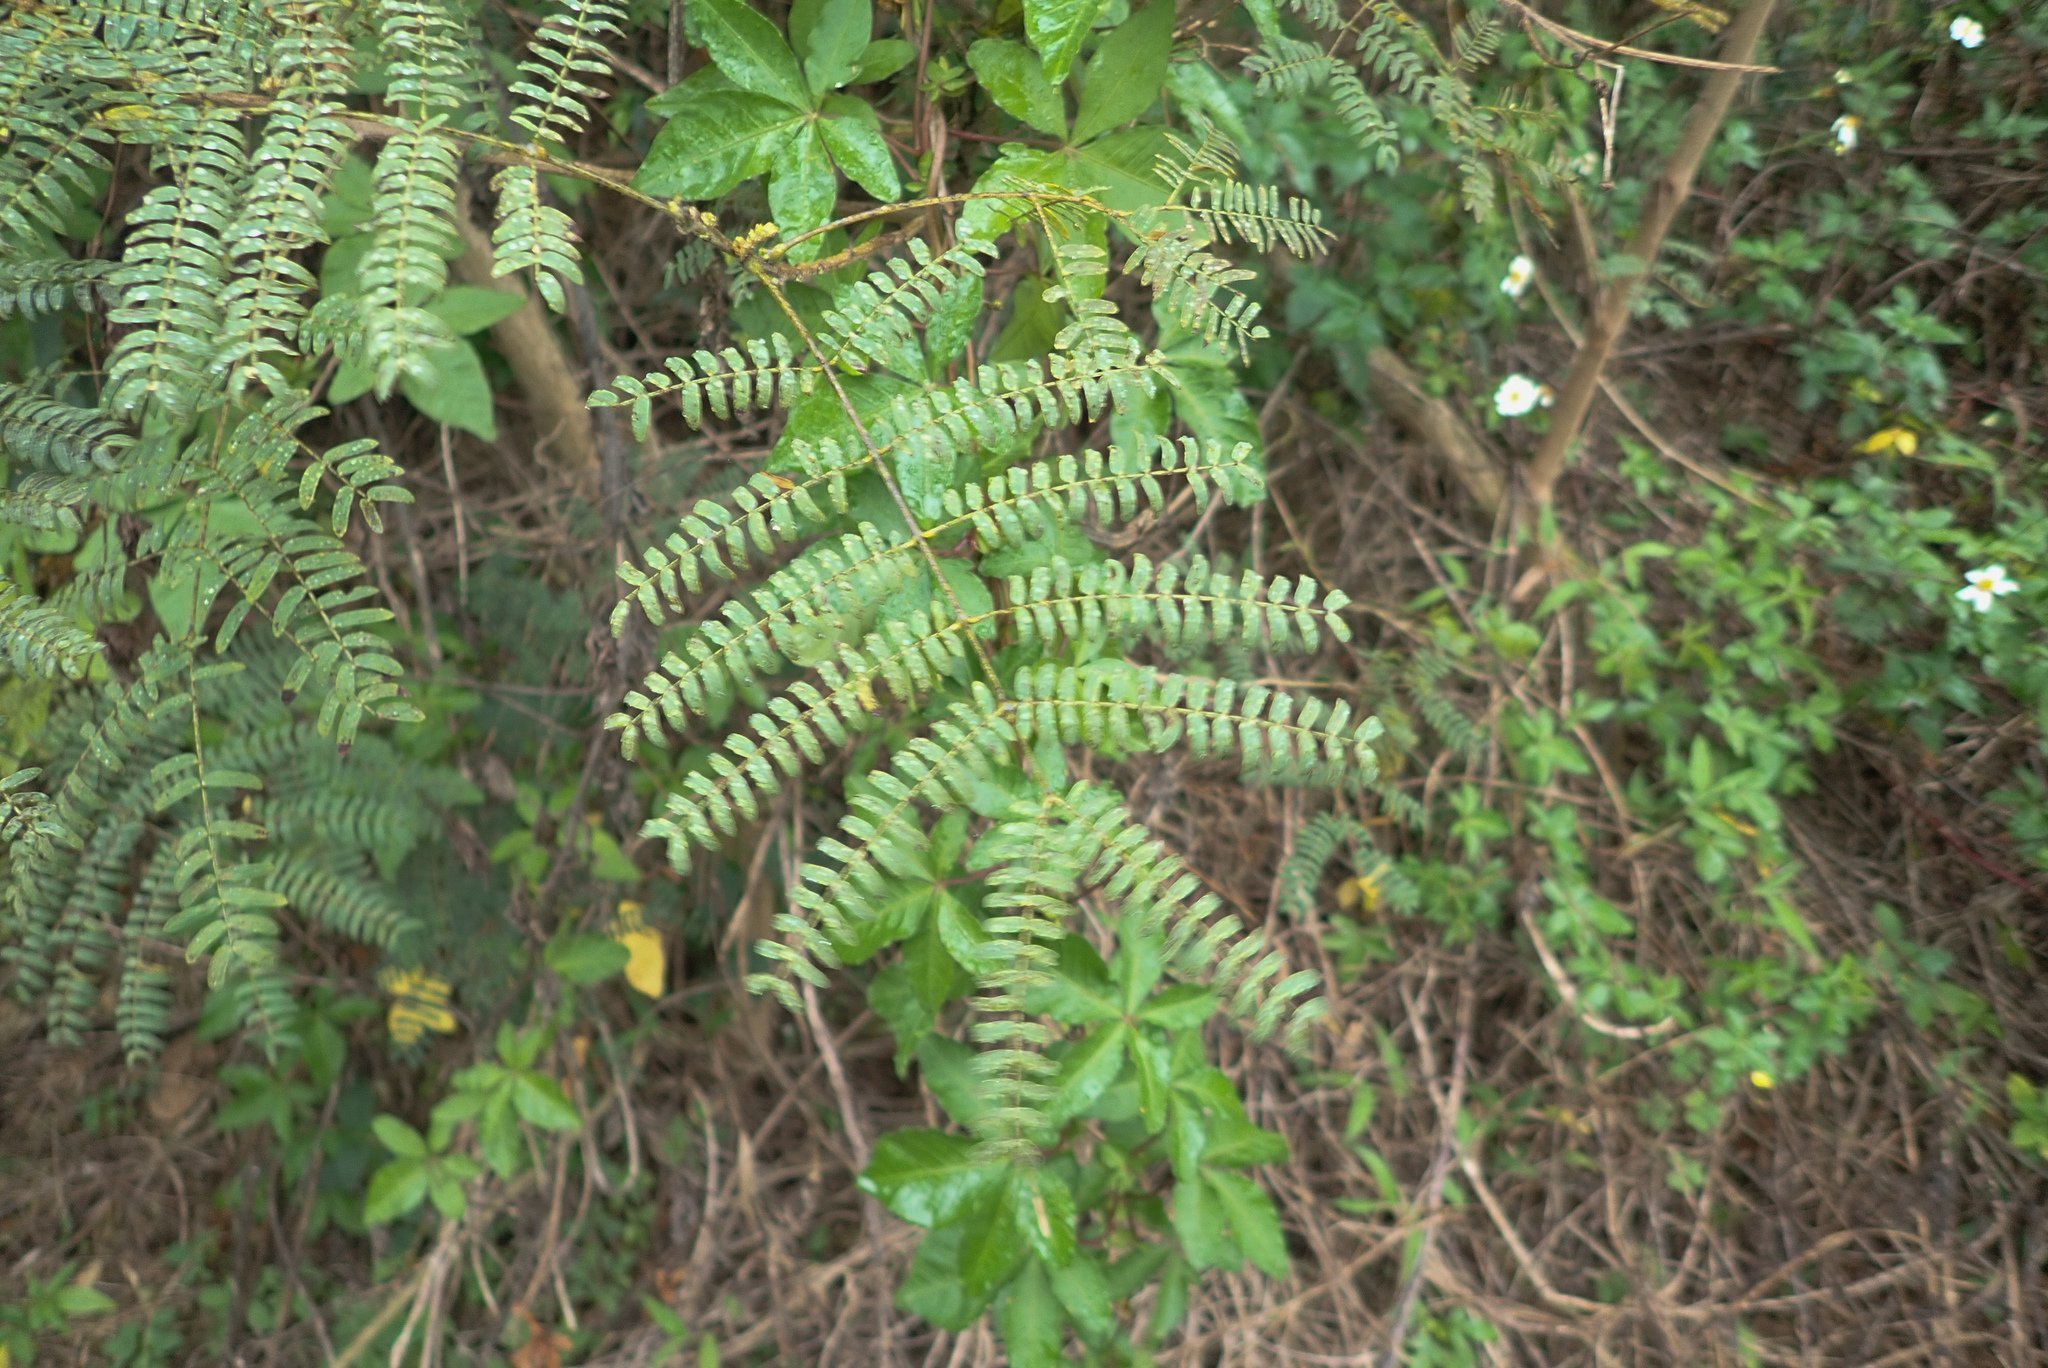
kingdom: Plantae
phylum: Tracheophyta
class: Magnoliopsida
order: Fabales
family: Fabaceae
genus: Leucaena
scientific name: Leucaena leucocephala
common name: White leadtree
